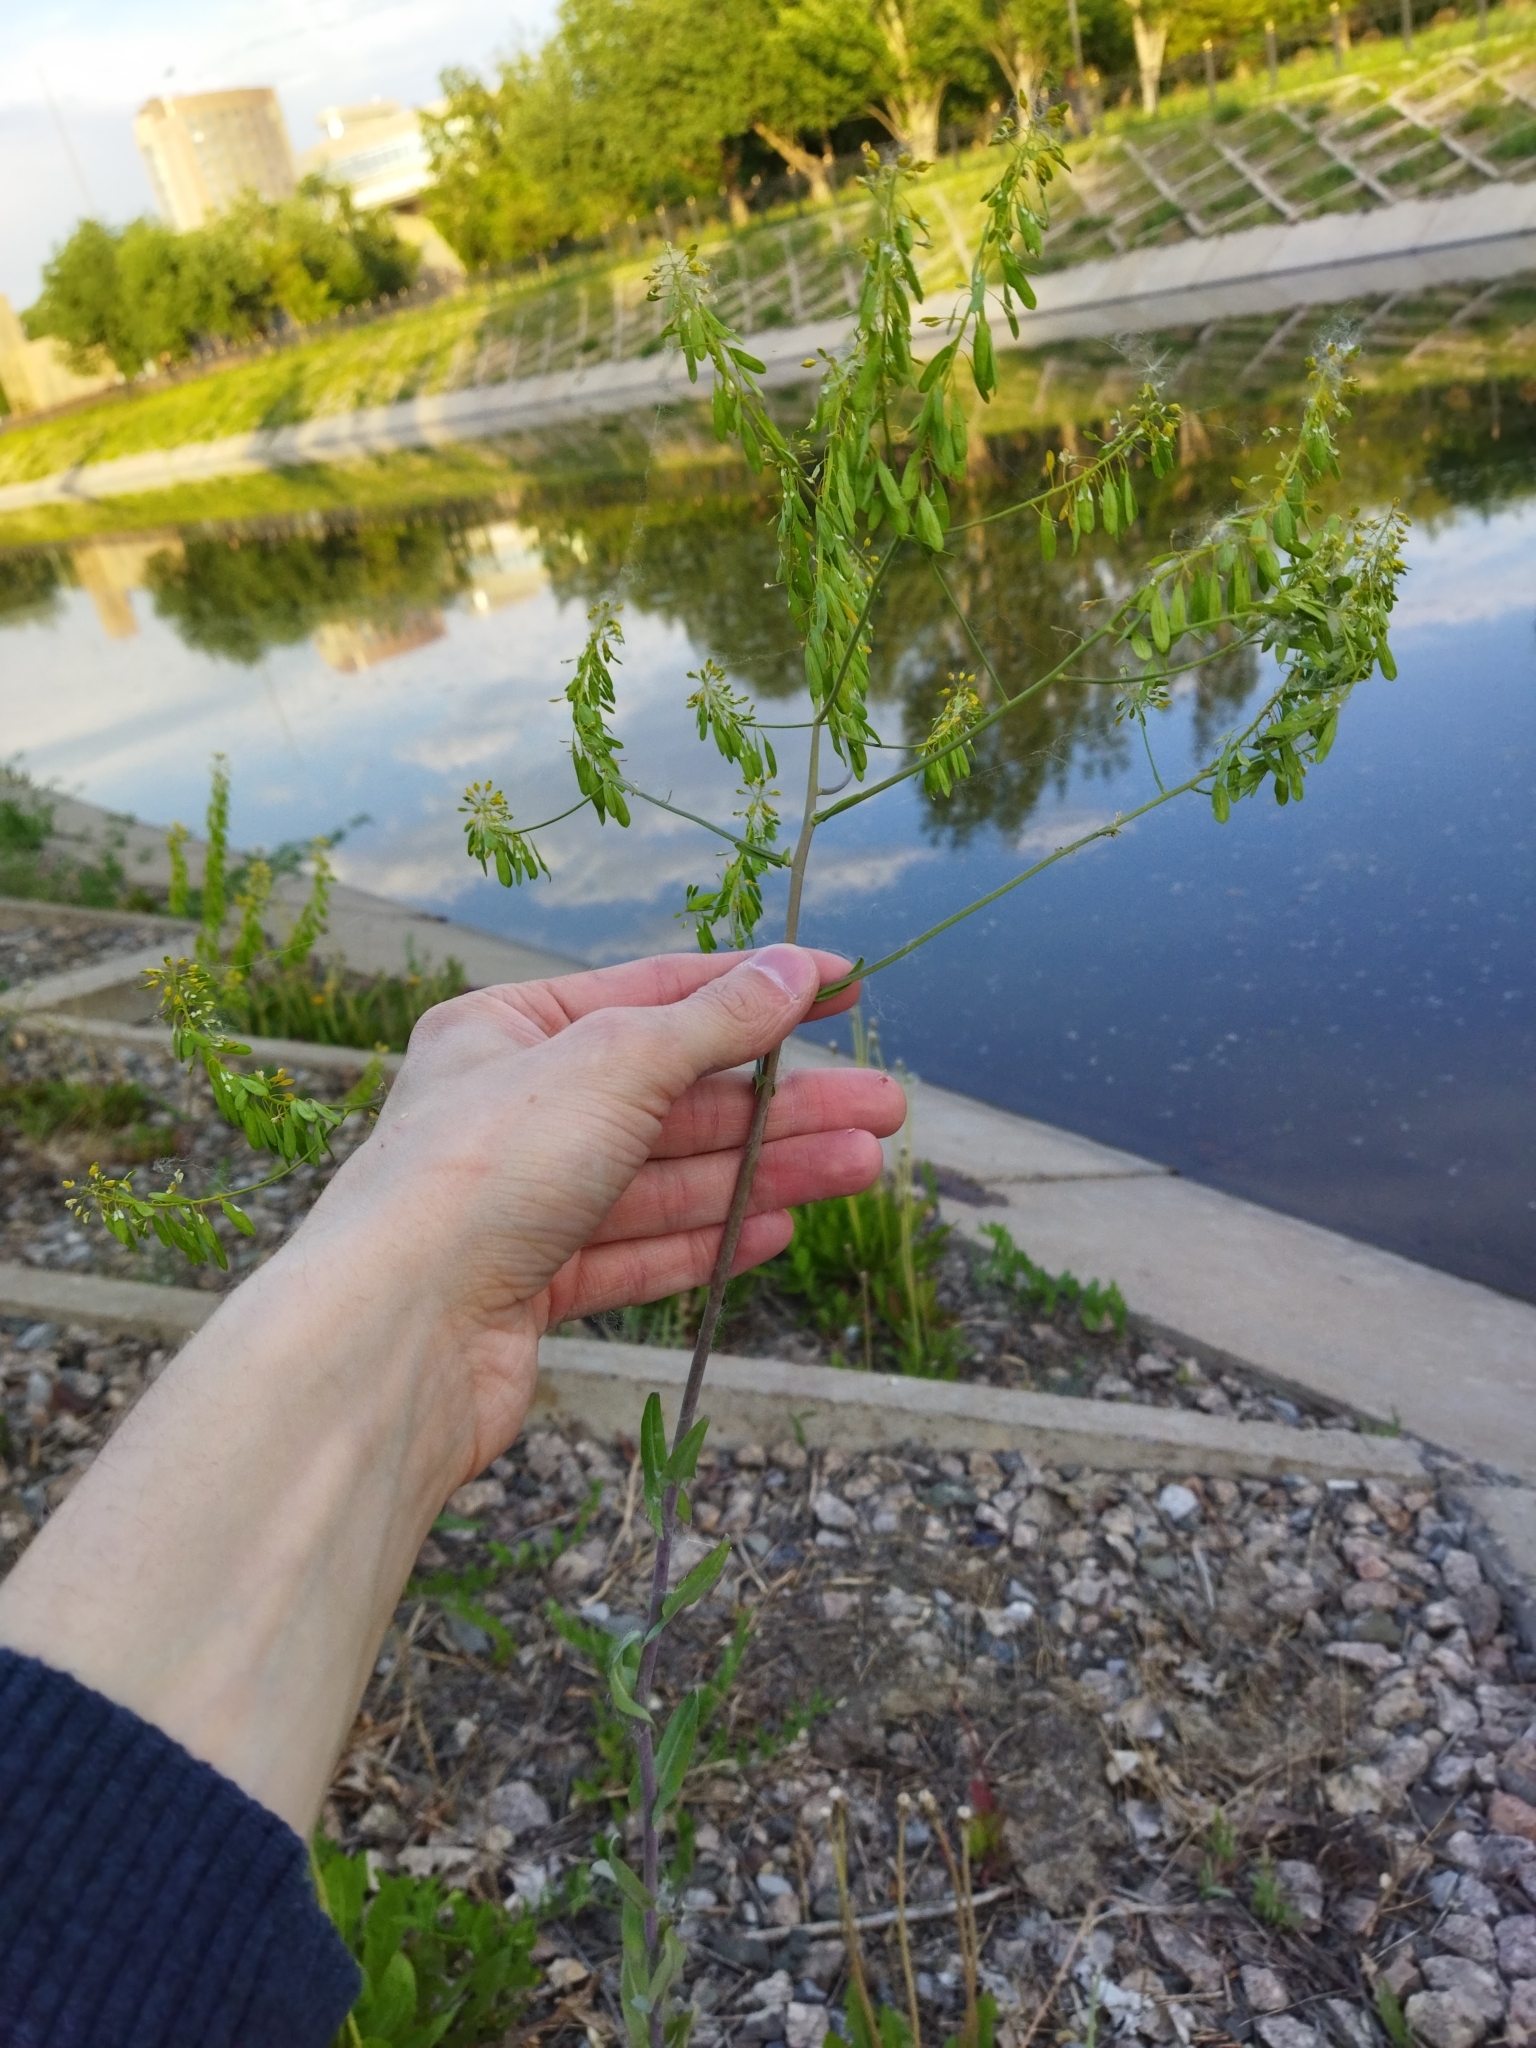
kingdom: Plantae
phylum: Tracheophyta
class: Magnoliopsida
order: Brassicales
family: Brassicaceae
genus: Isatis
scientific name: Isatis tinctoria
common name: Woad
